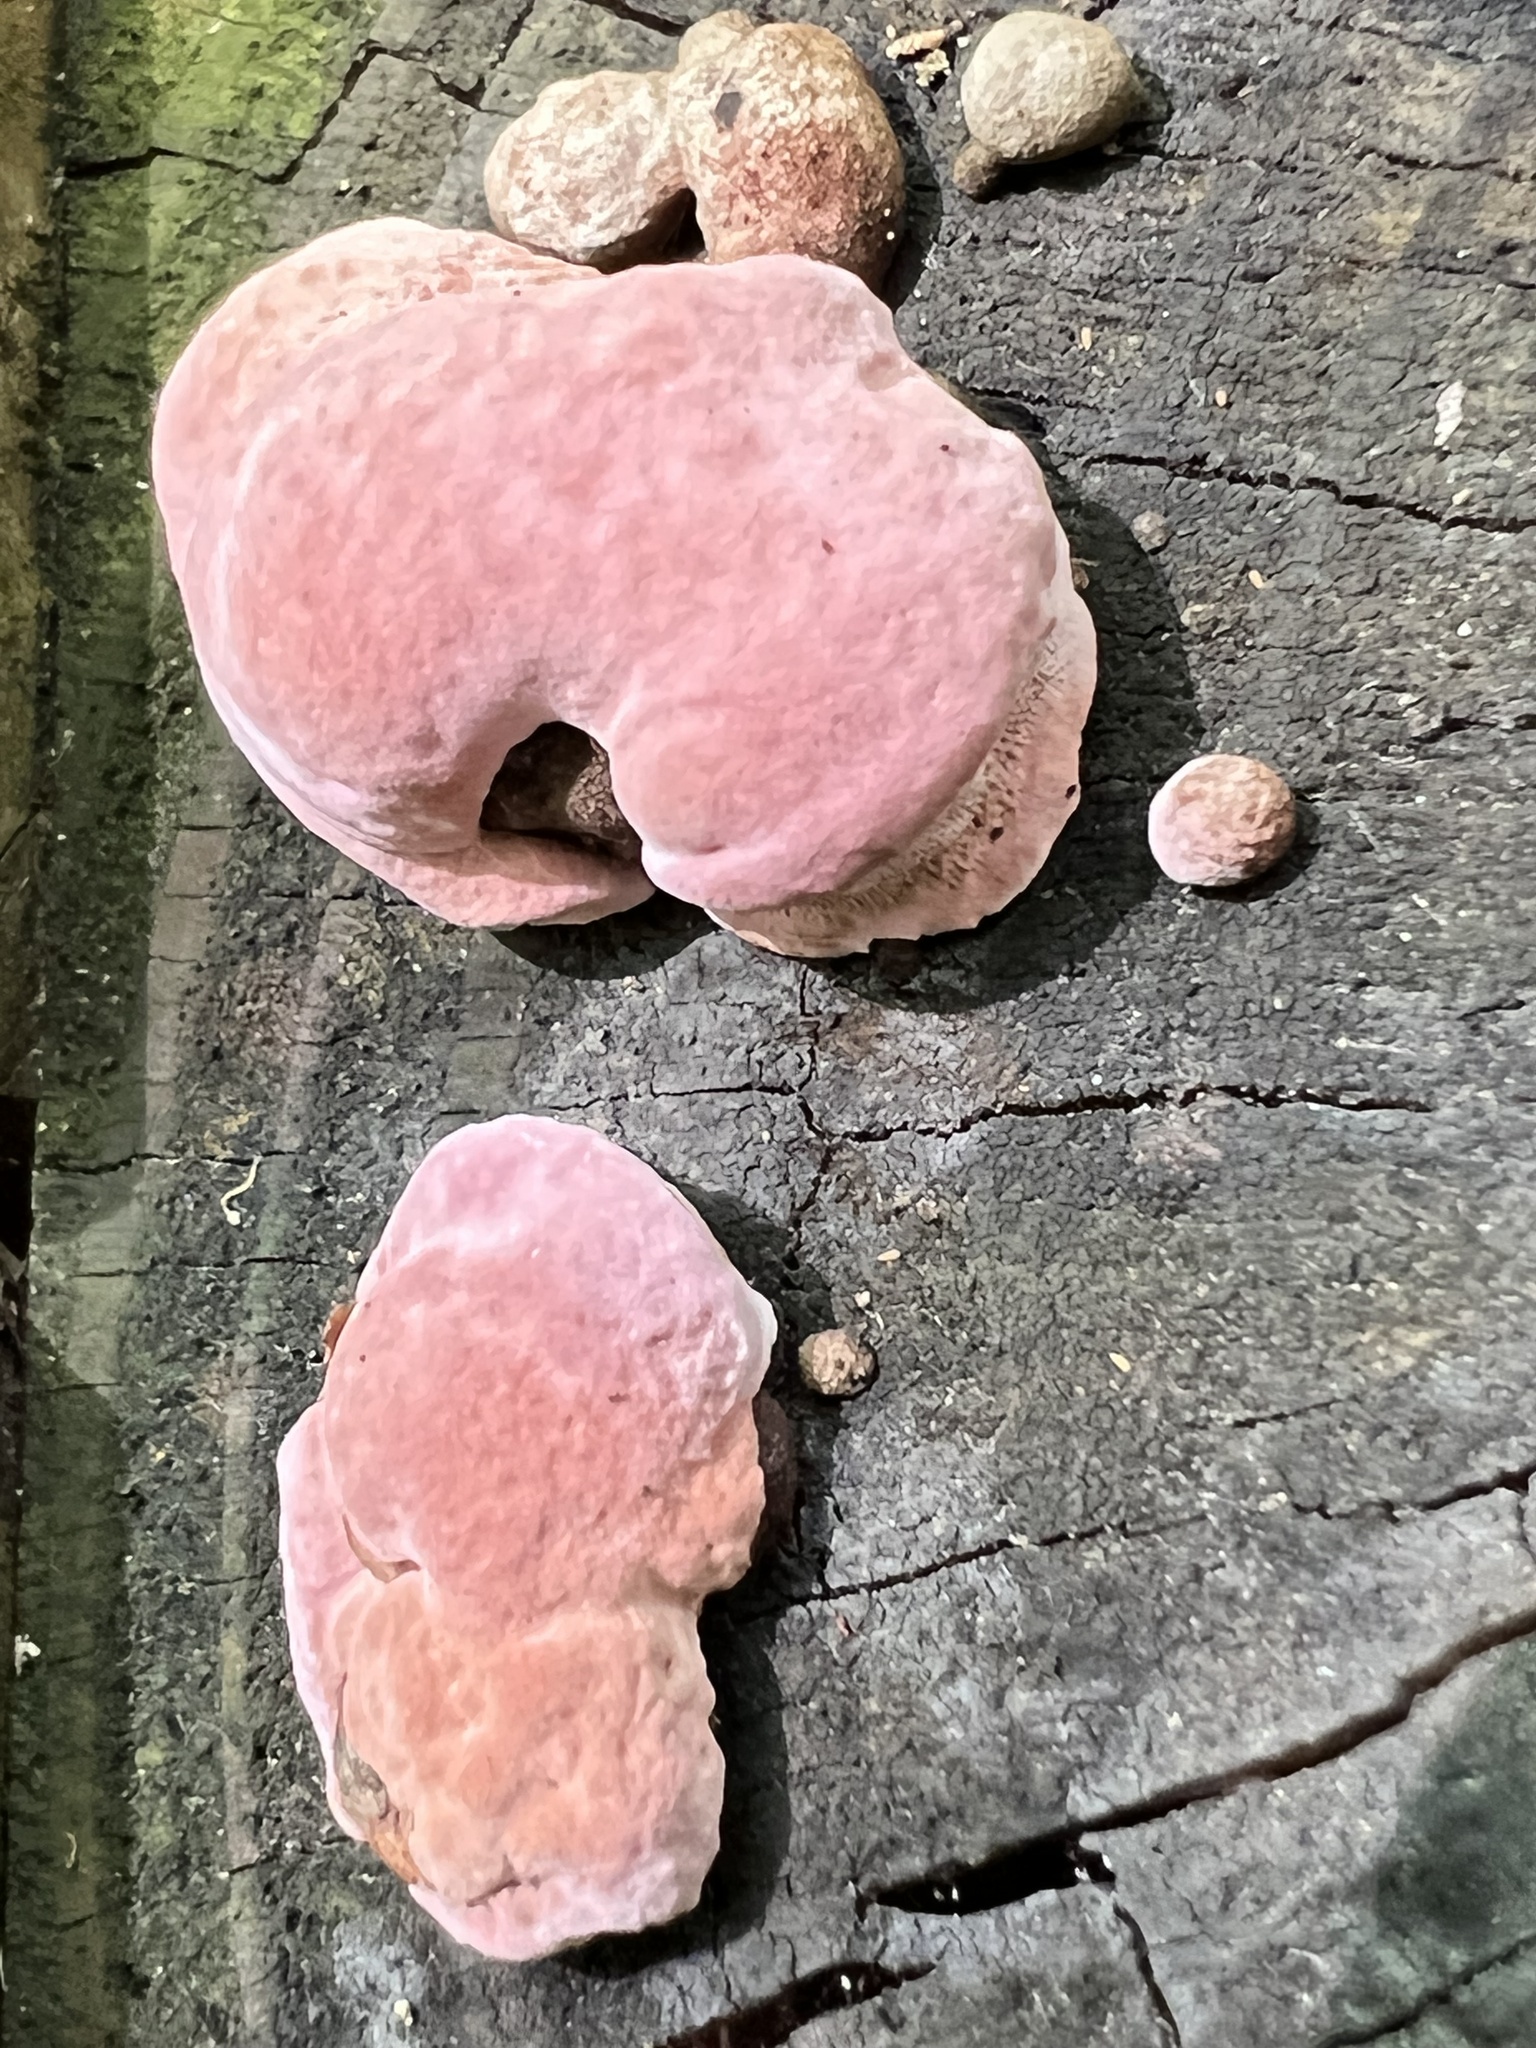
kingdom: Fungi
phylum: Basidiomycota
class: Agaricomycetes
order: Polyporales
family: Fomitopsidaceae
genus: Rhodofomes
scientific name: Rhodofomes cajanderi
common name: Rosy conk
